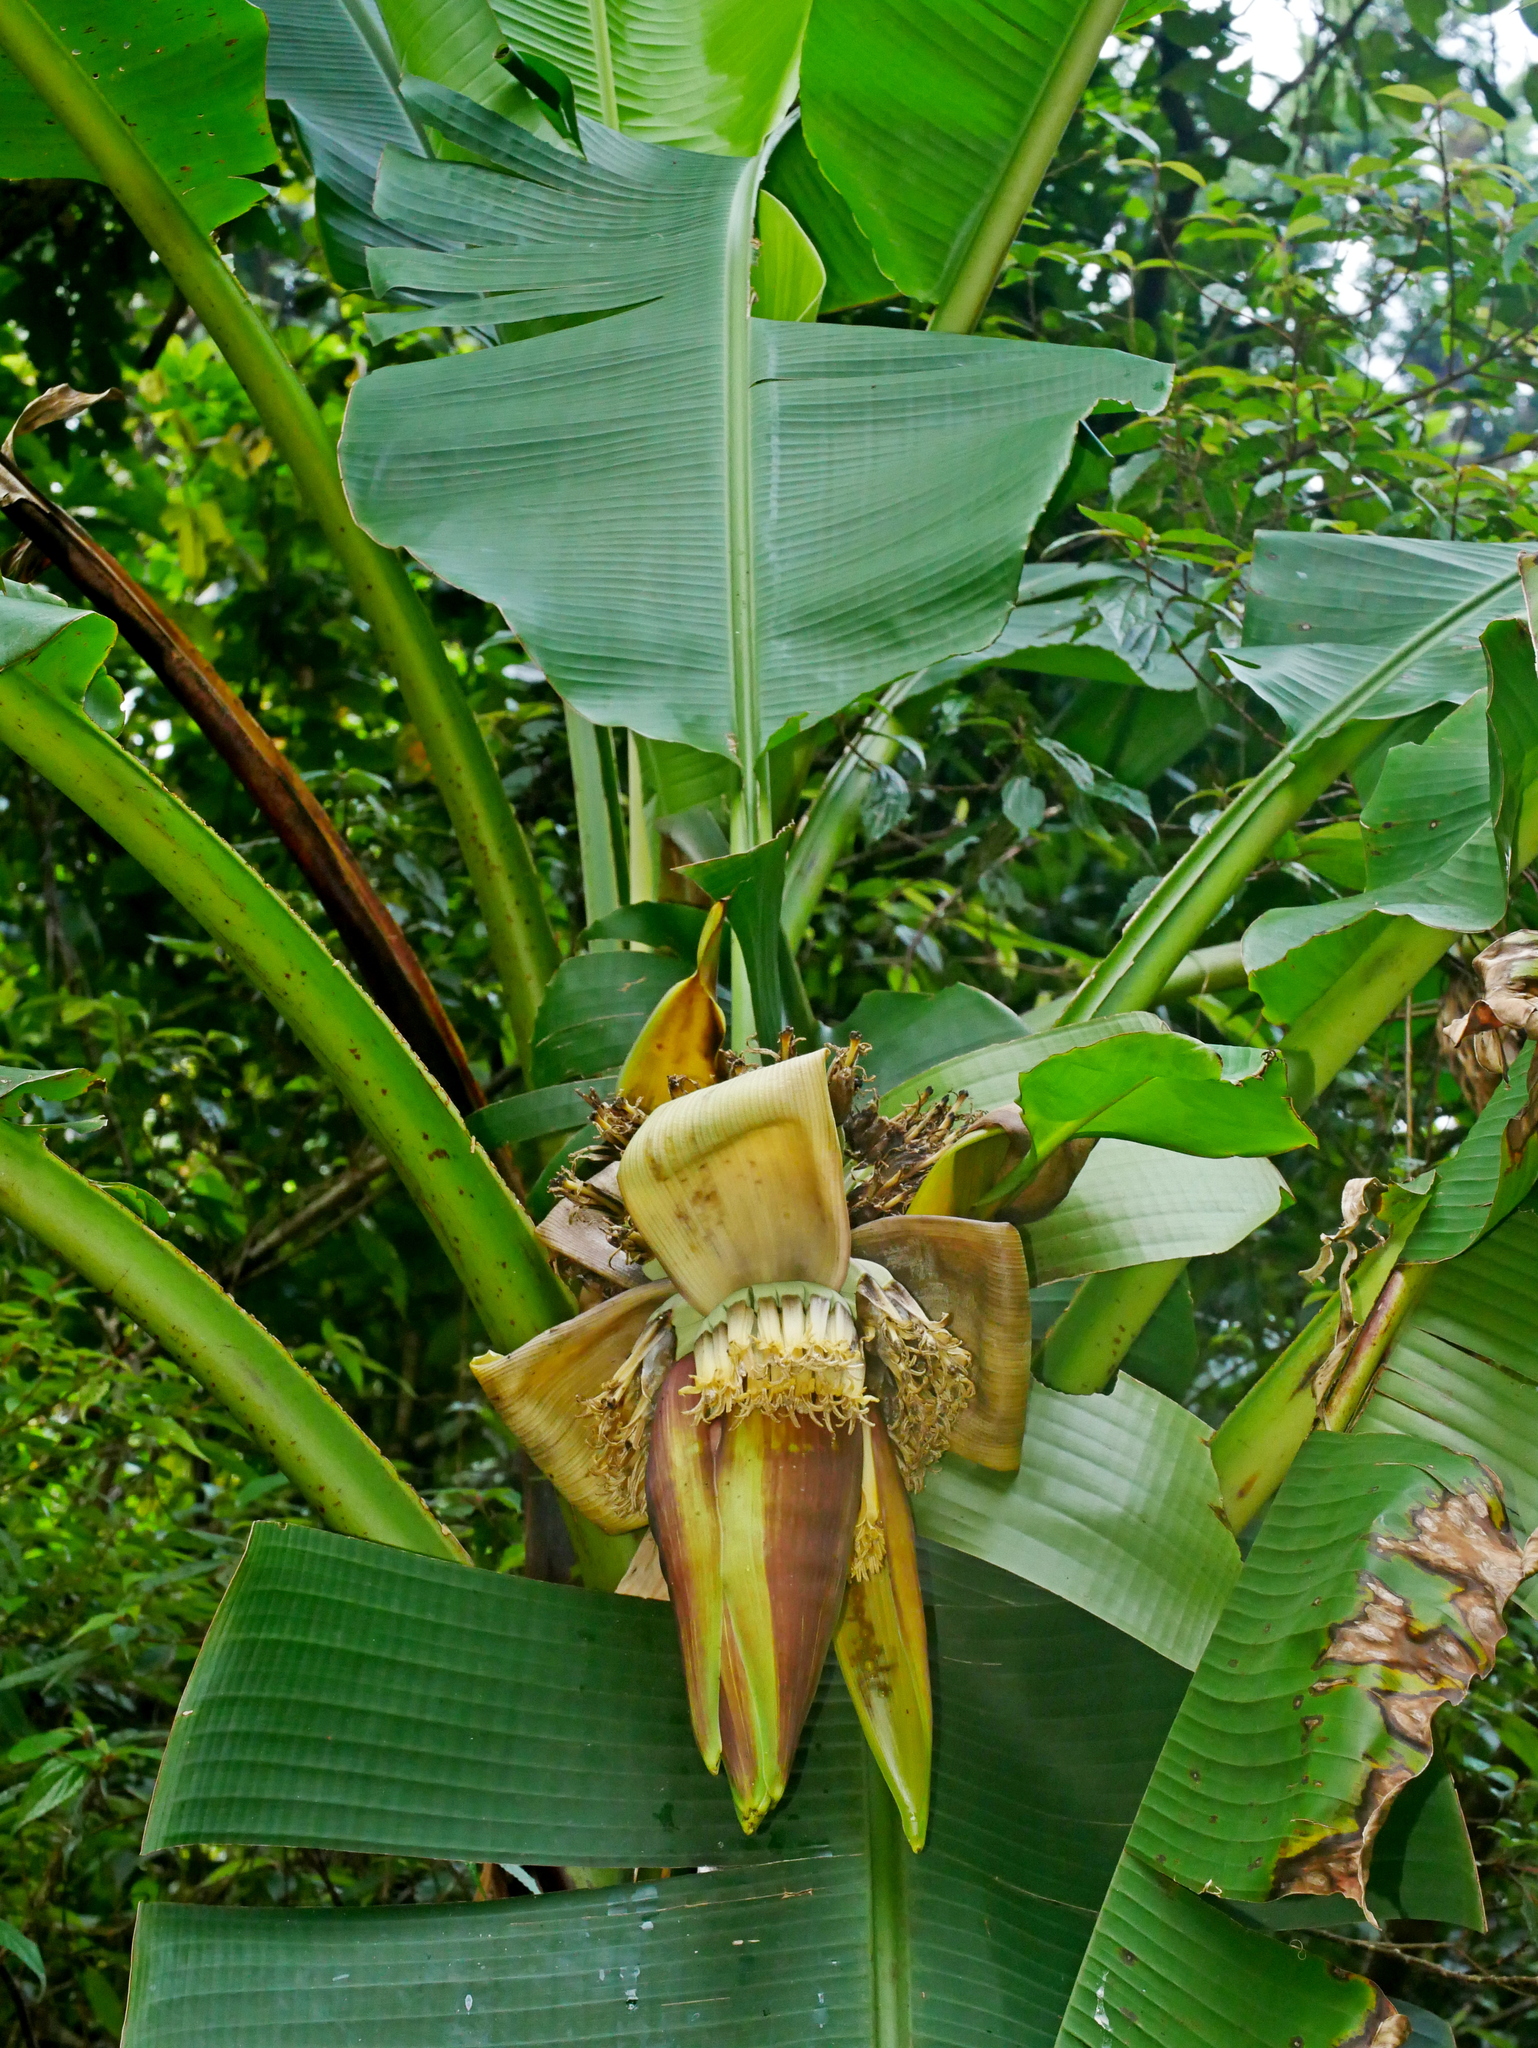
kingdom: Plantae
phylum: Tracheophyta
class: Liliopsida
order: Zingiberales
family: Musaceae
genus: Musa
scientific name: Musa itinerans
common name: Yunnan banana
